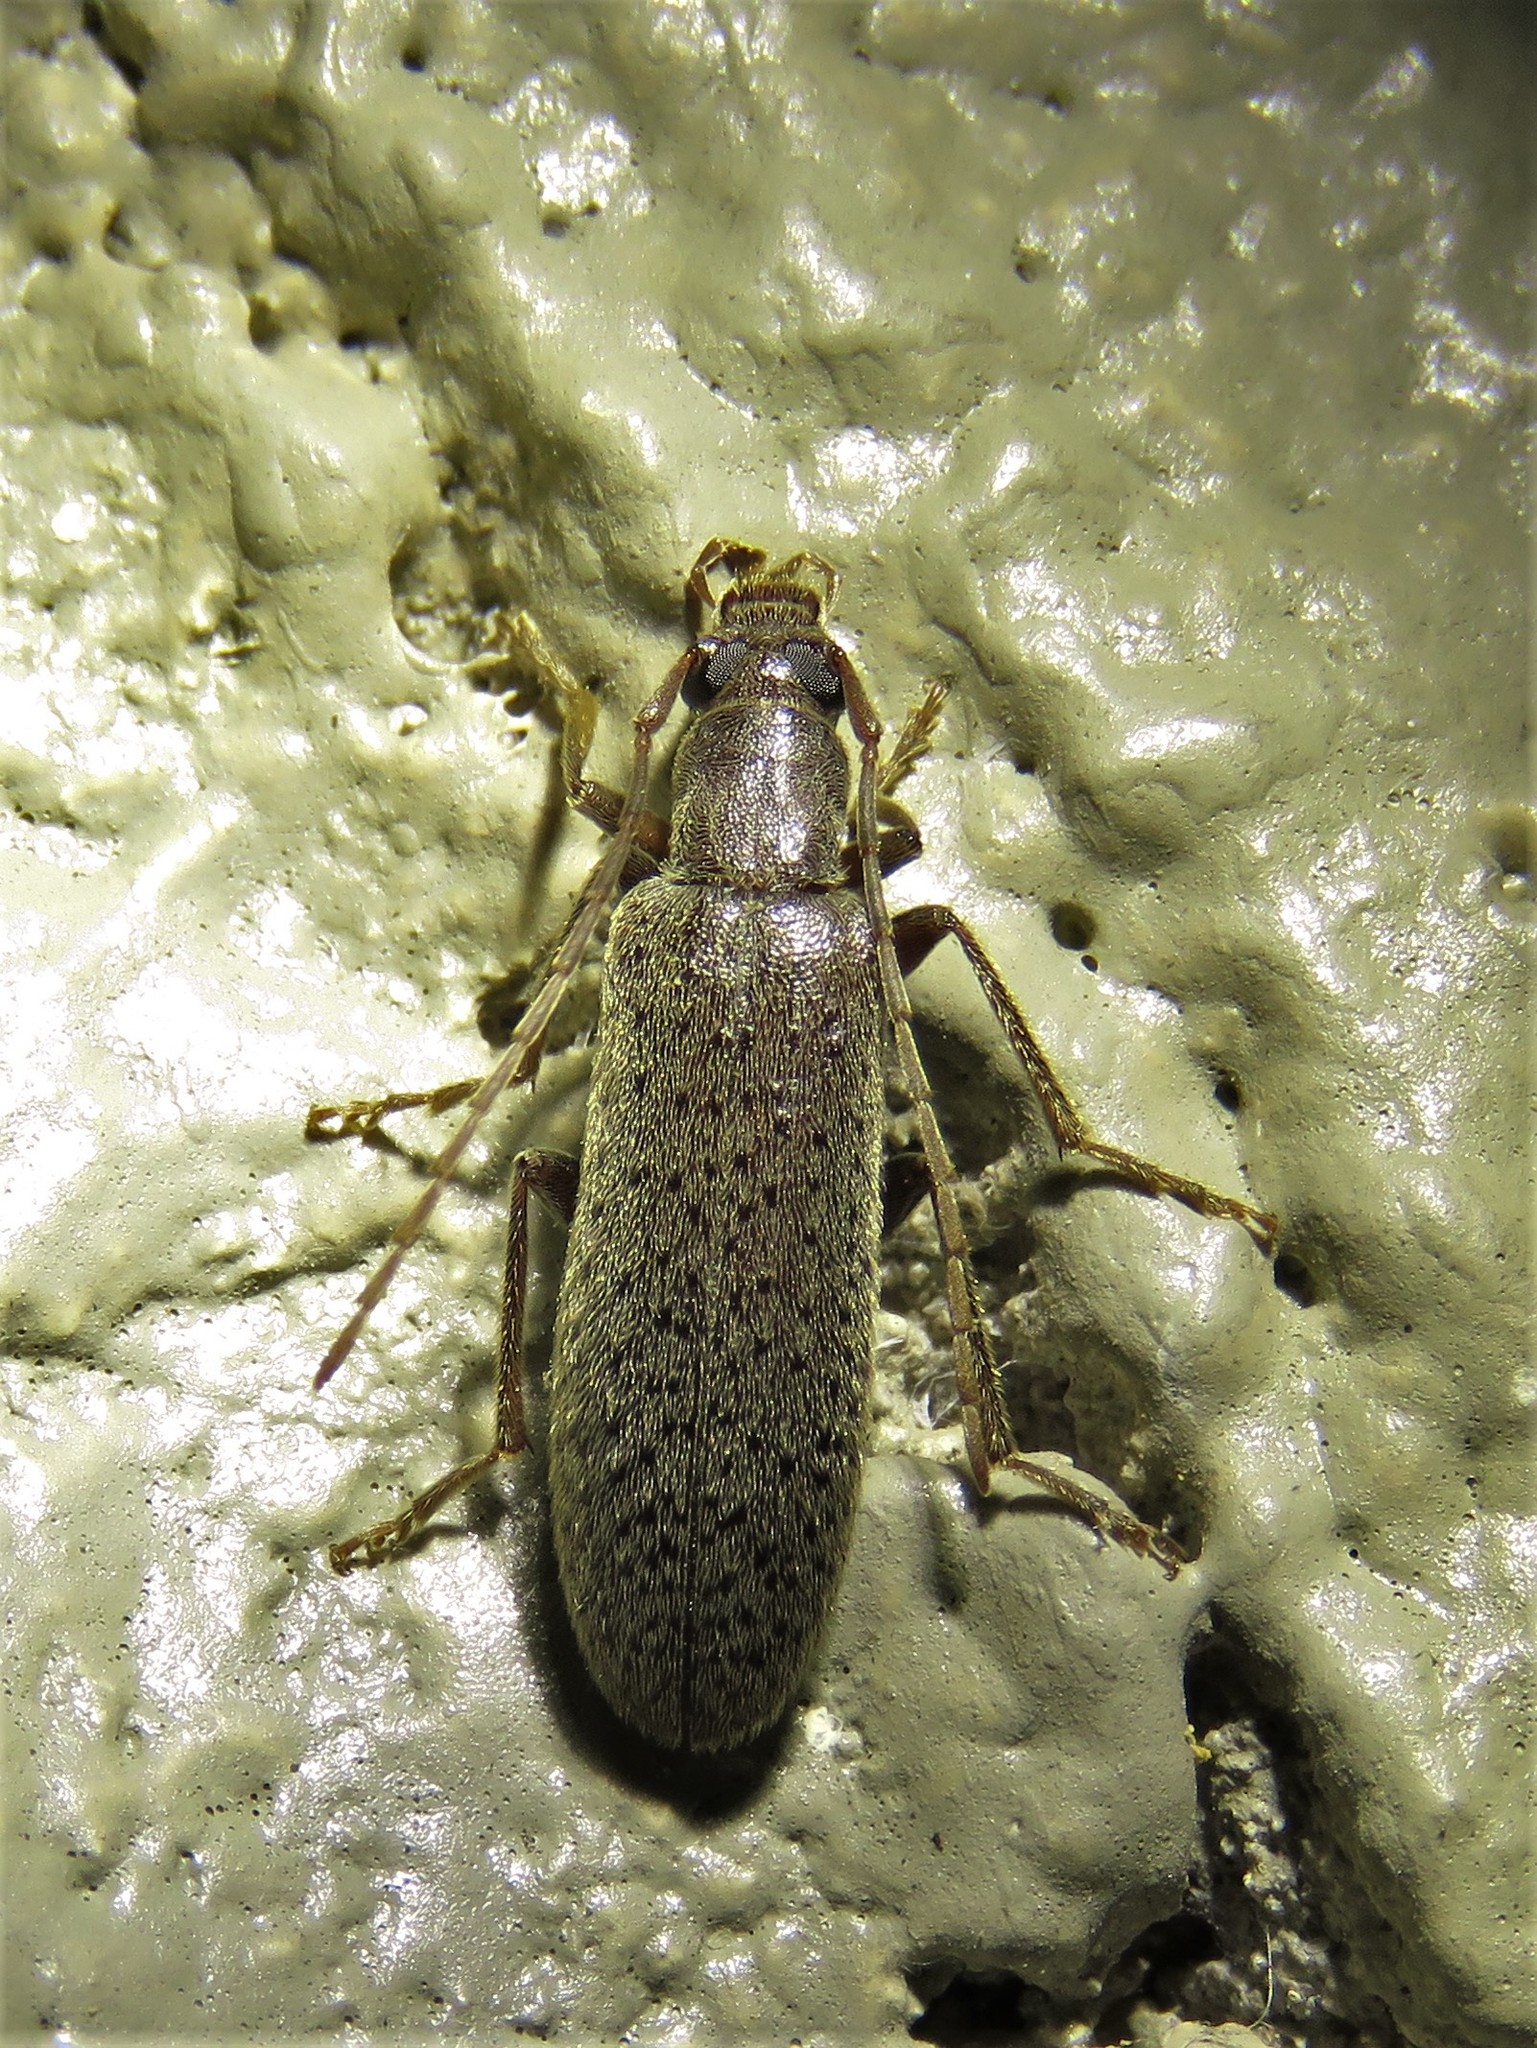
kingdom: Animalia
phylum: Arthropoda
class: Insecta
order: Coleoptera
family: Oedemeridae
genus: Sparedrus
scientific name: Sparedrus aspersus
